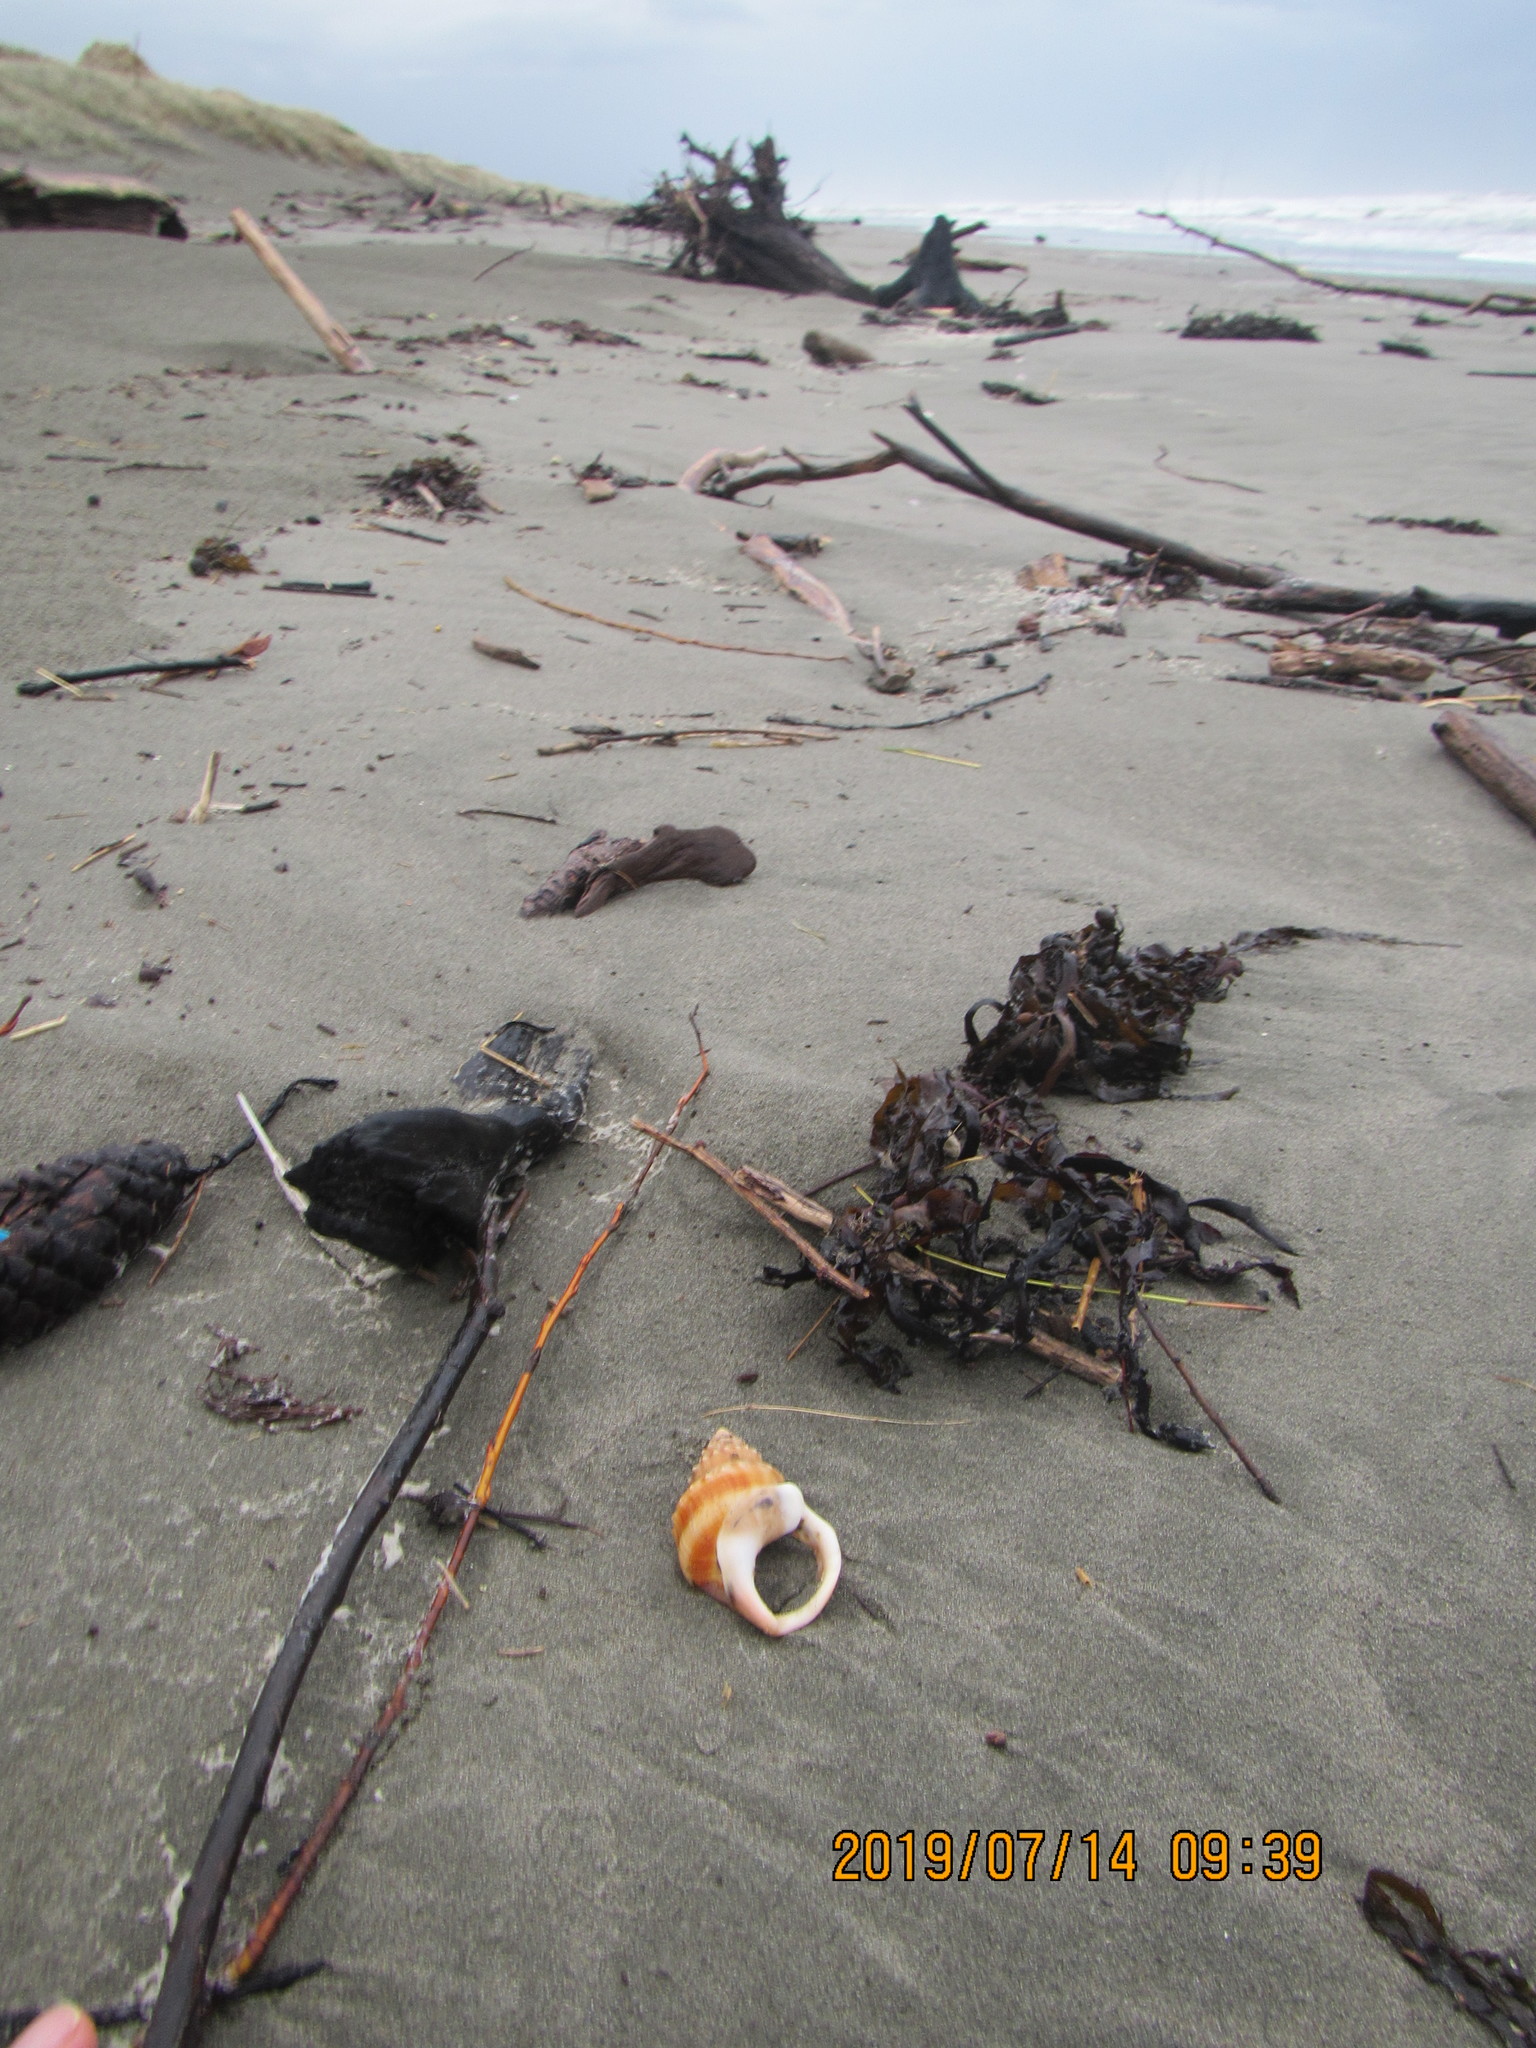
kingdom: Animalia
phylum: Mollusca
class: Gastropoda
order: Littorinimorpha
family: Struthiolariidae
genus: Struthiolaria
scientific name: Struthiolaria papulosa
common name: Large ostrich foot
